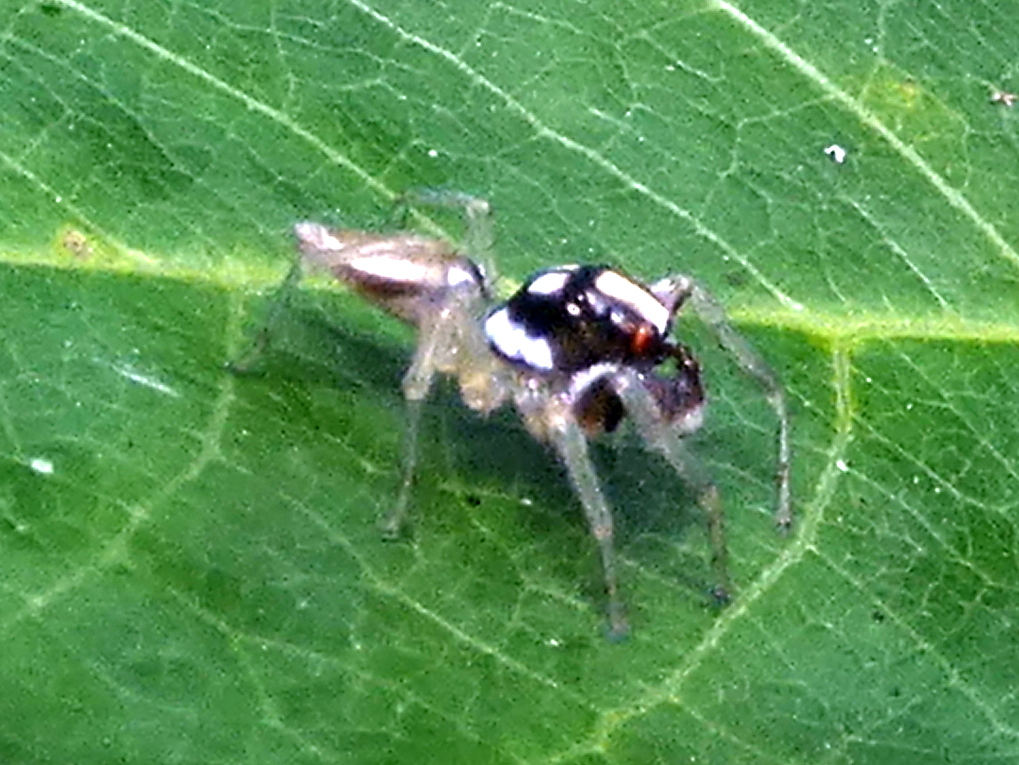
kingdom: Animalia
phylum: Arthropoda
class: Arachnida
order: Araneae
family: Salticidae
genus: Chira
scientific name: Chira spinosa
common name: Jumping spiders
